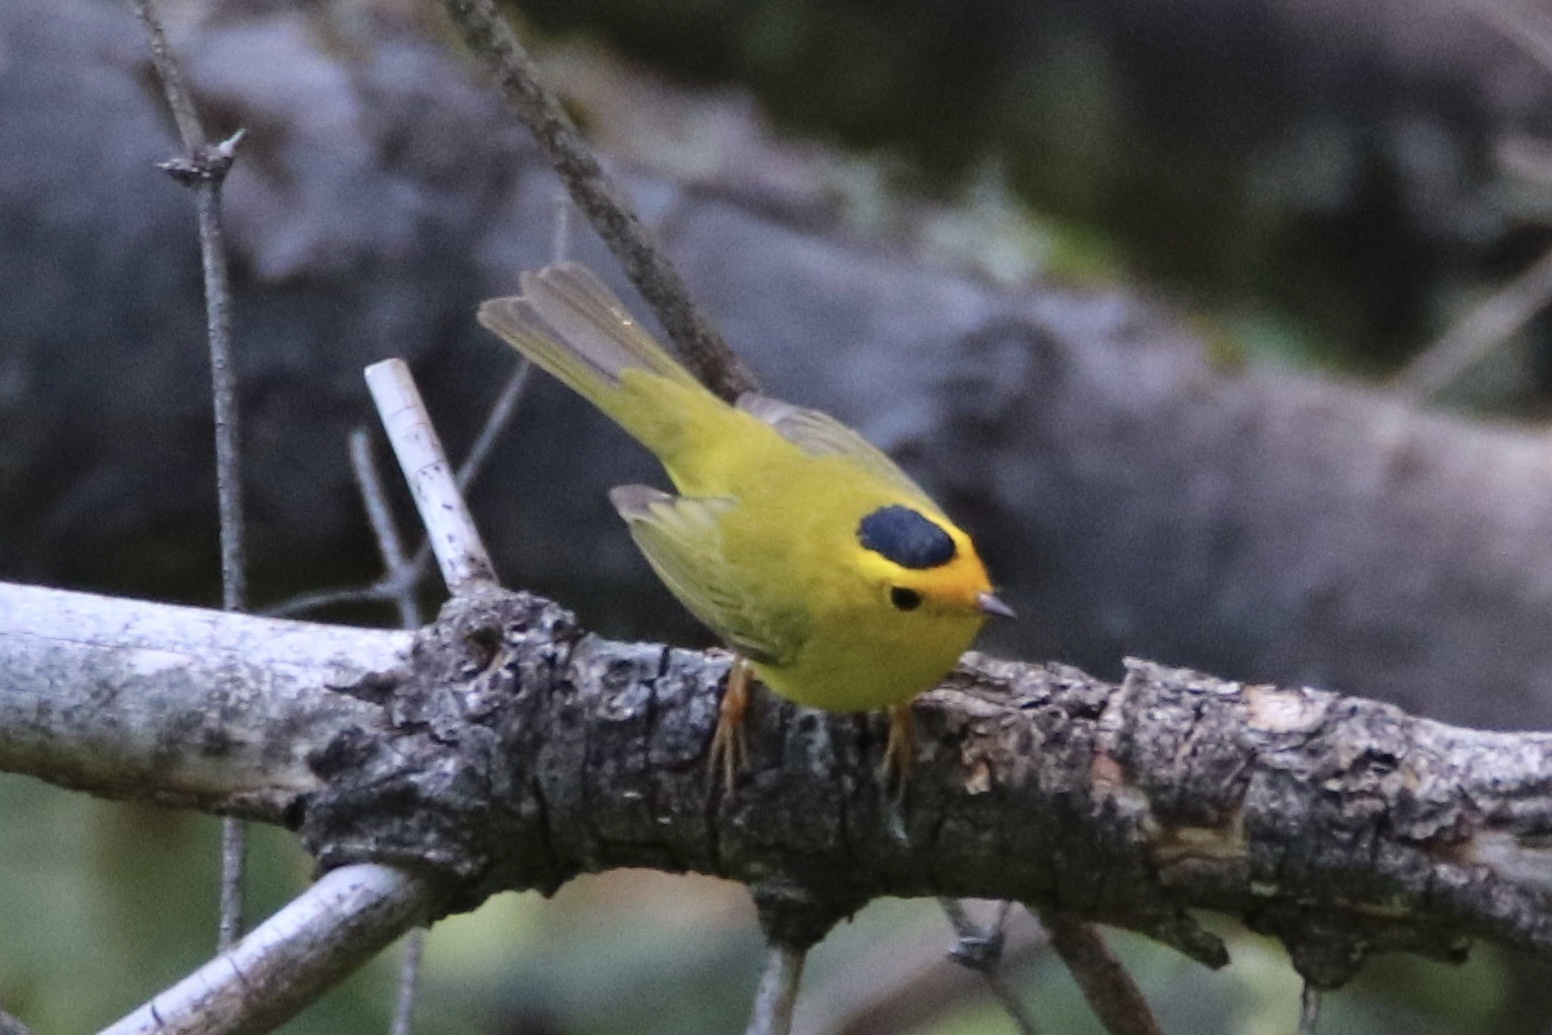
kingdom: Animalia
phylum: Chordata
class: Aves
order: Passeriformes
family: Parulidae
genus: Cardellina
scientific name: Cardellina pusilla
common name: Wilson's warbler
